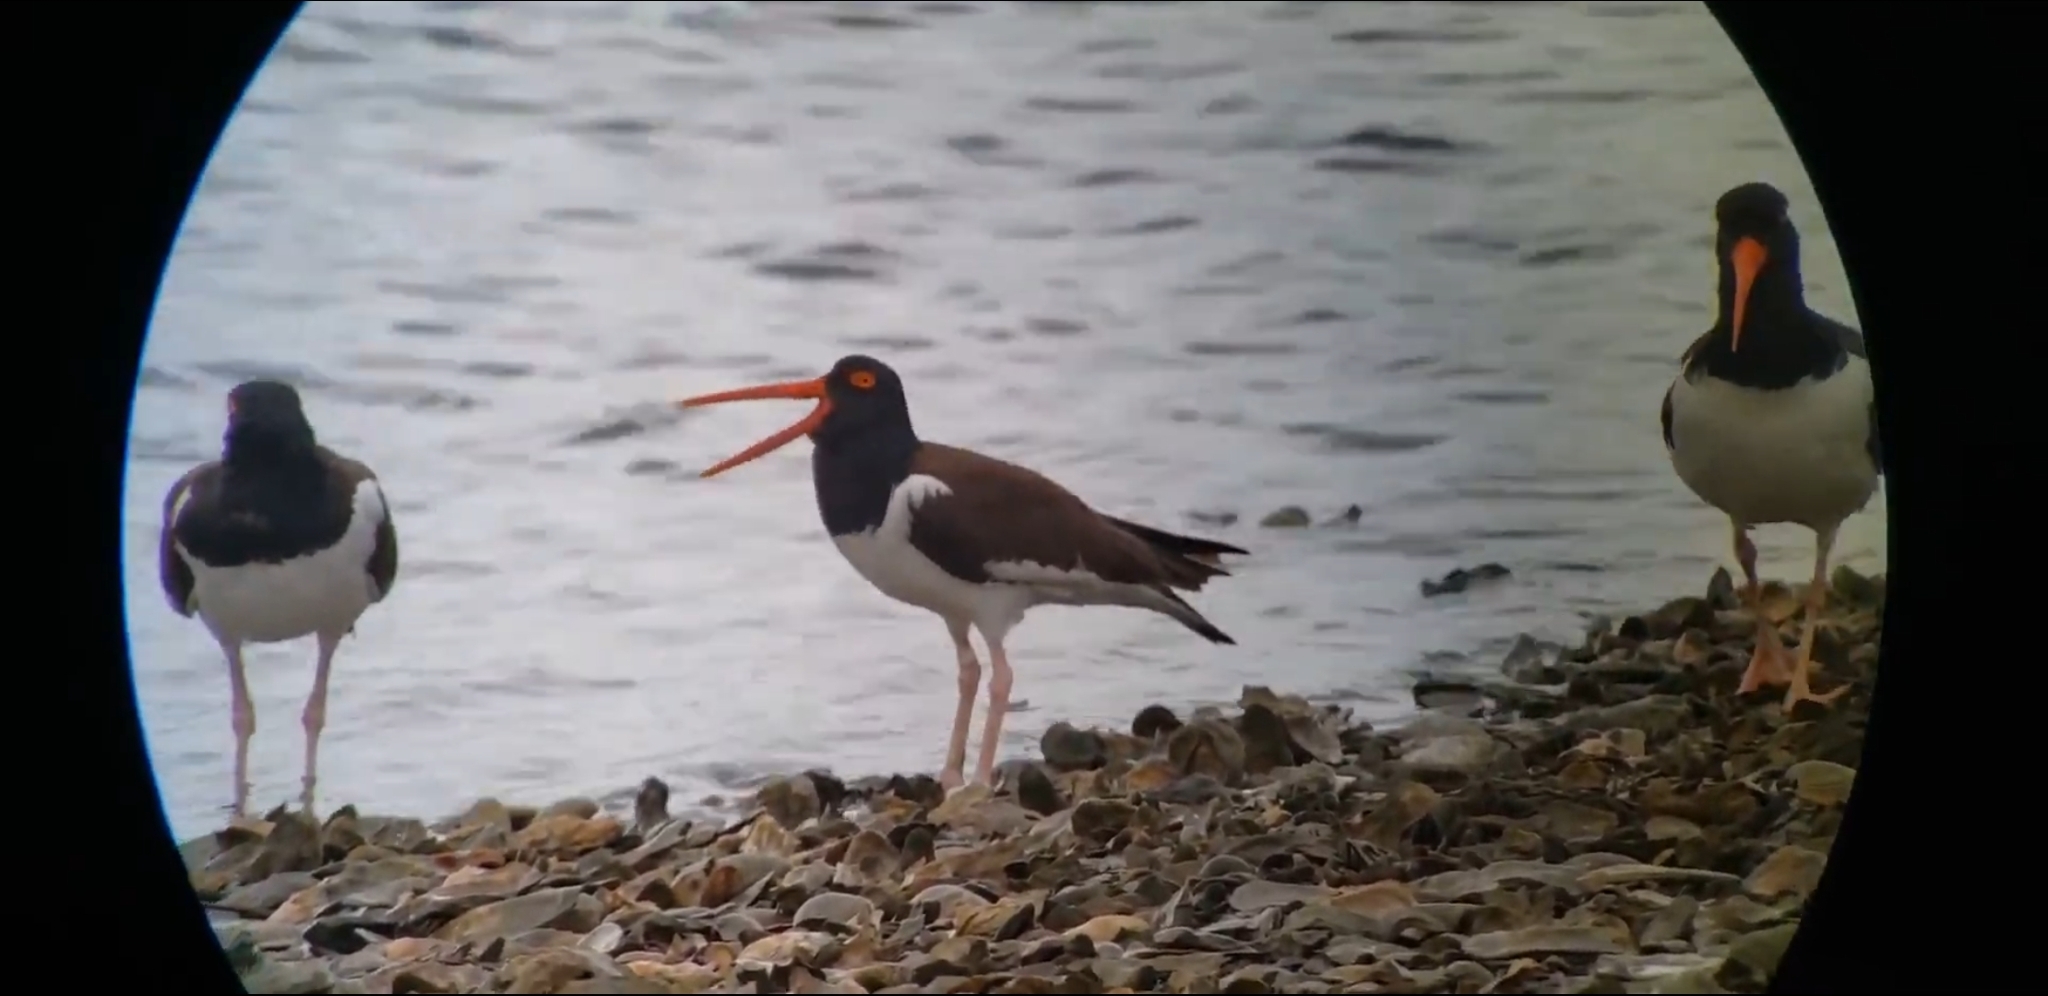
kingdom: Animalia
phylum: Chordata
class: Aves
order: Charadriiformes
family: Haematopodidae
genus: Haematopus
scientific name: Haematopus palliatus
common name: American oystercatcher
